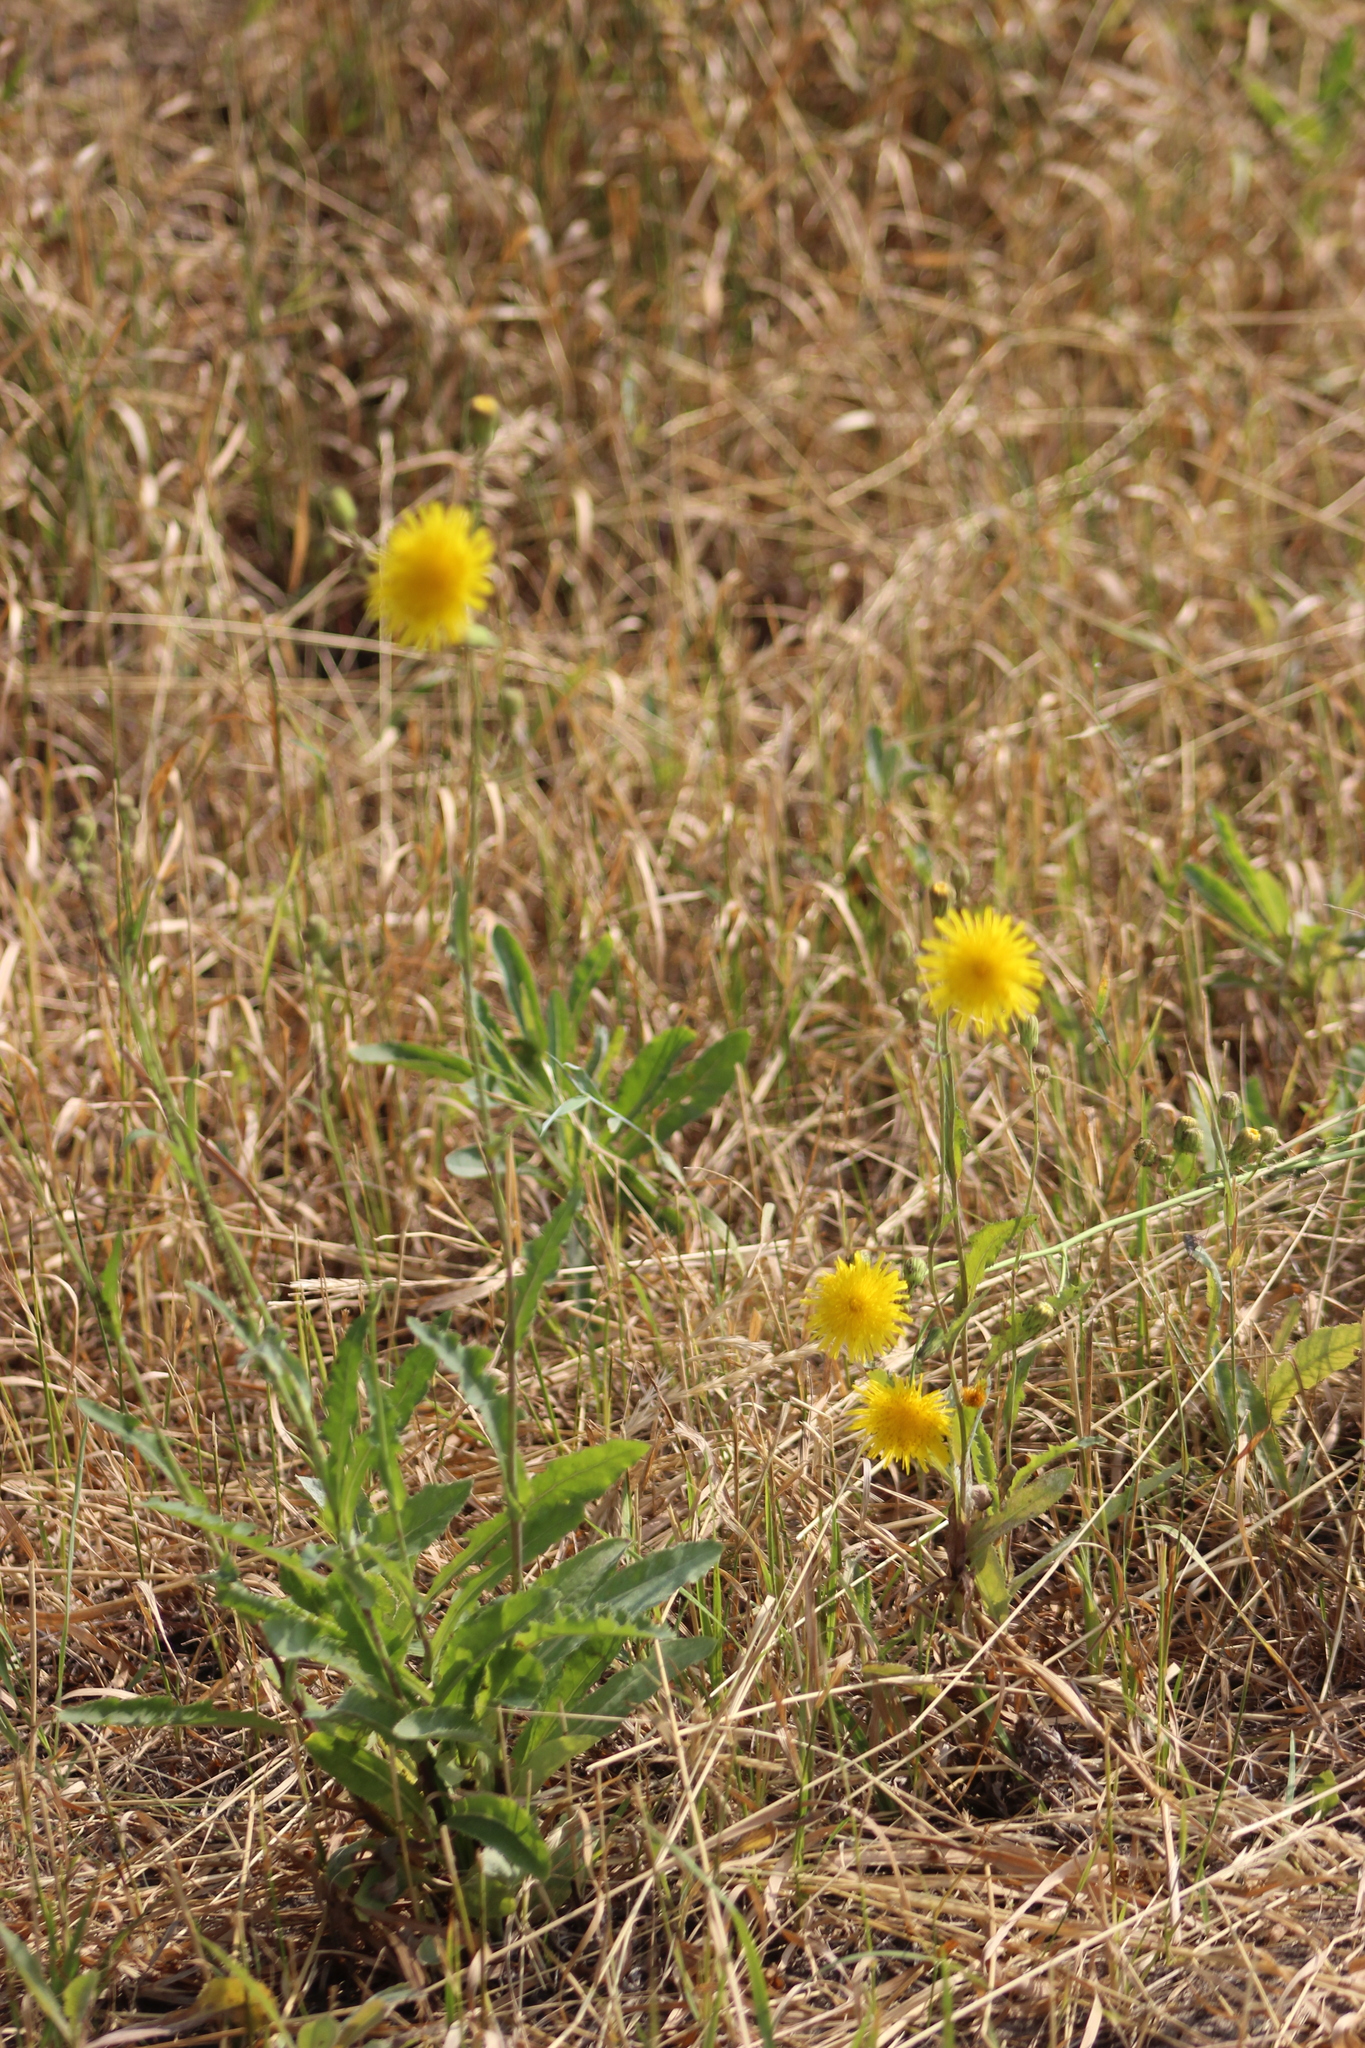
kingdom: Plantae
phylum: Tracheophyta
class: Magnoliopsida
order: Asterales
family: Asteraceae
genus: Sonchus
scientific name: Sonchus arvensis
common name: Perennial sow-thistle
